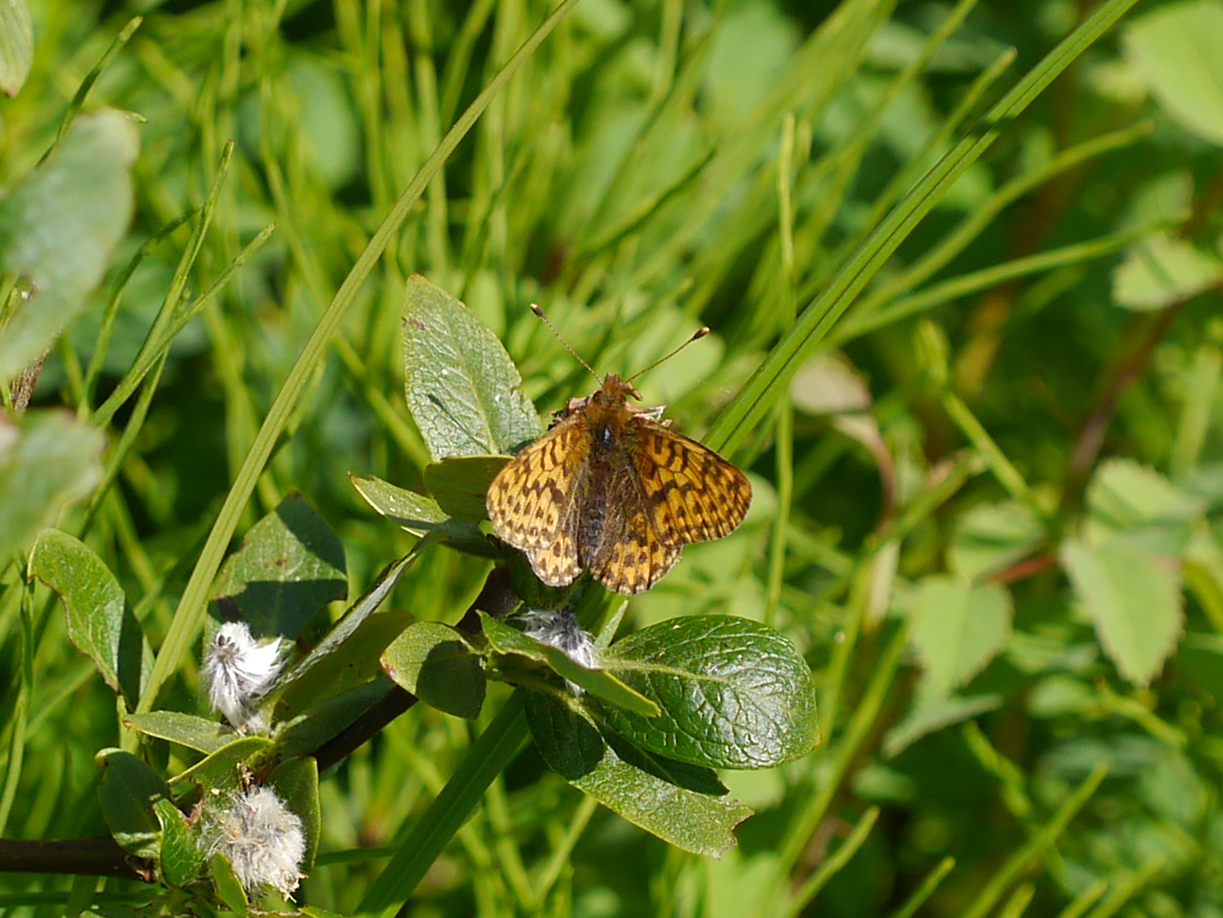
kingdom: Animalia
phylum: Arthropoda
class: Insecta
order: Lepidoptera
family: Nymphalidae
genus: Boloria
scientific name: Boloria chariclea
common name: Arctic fritillary
